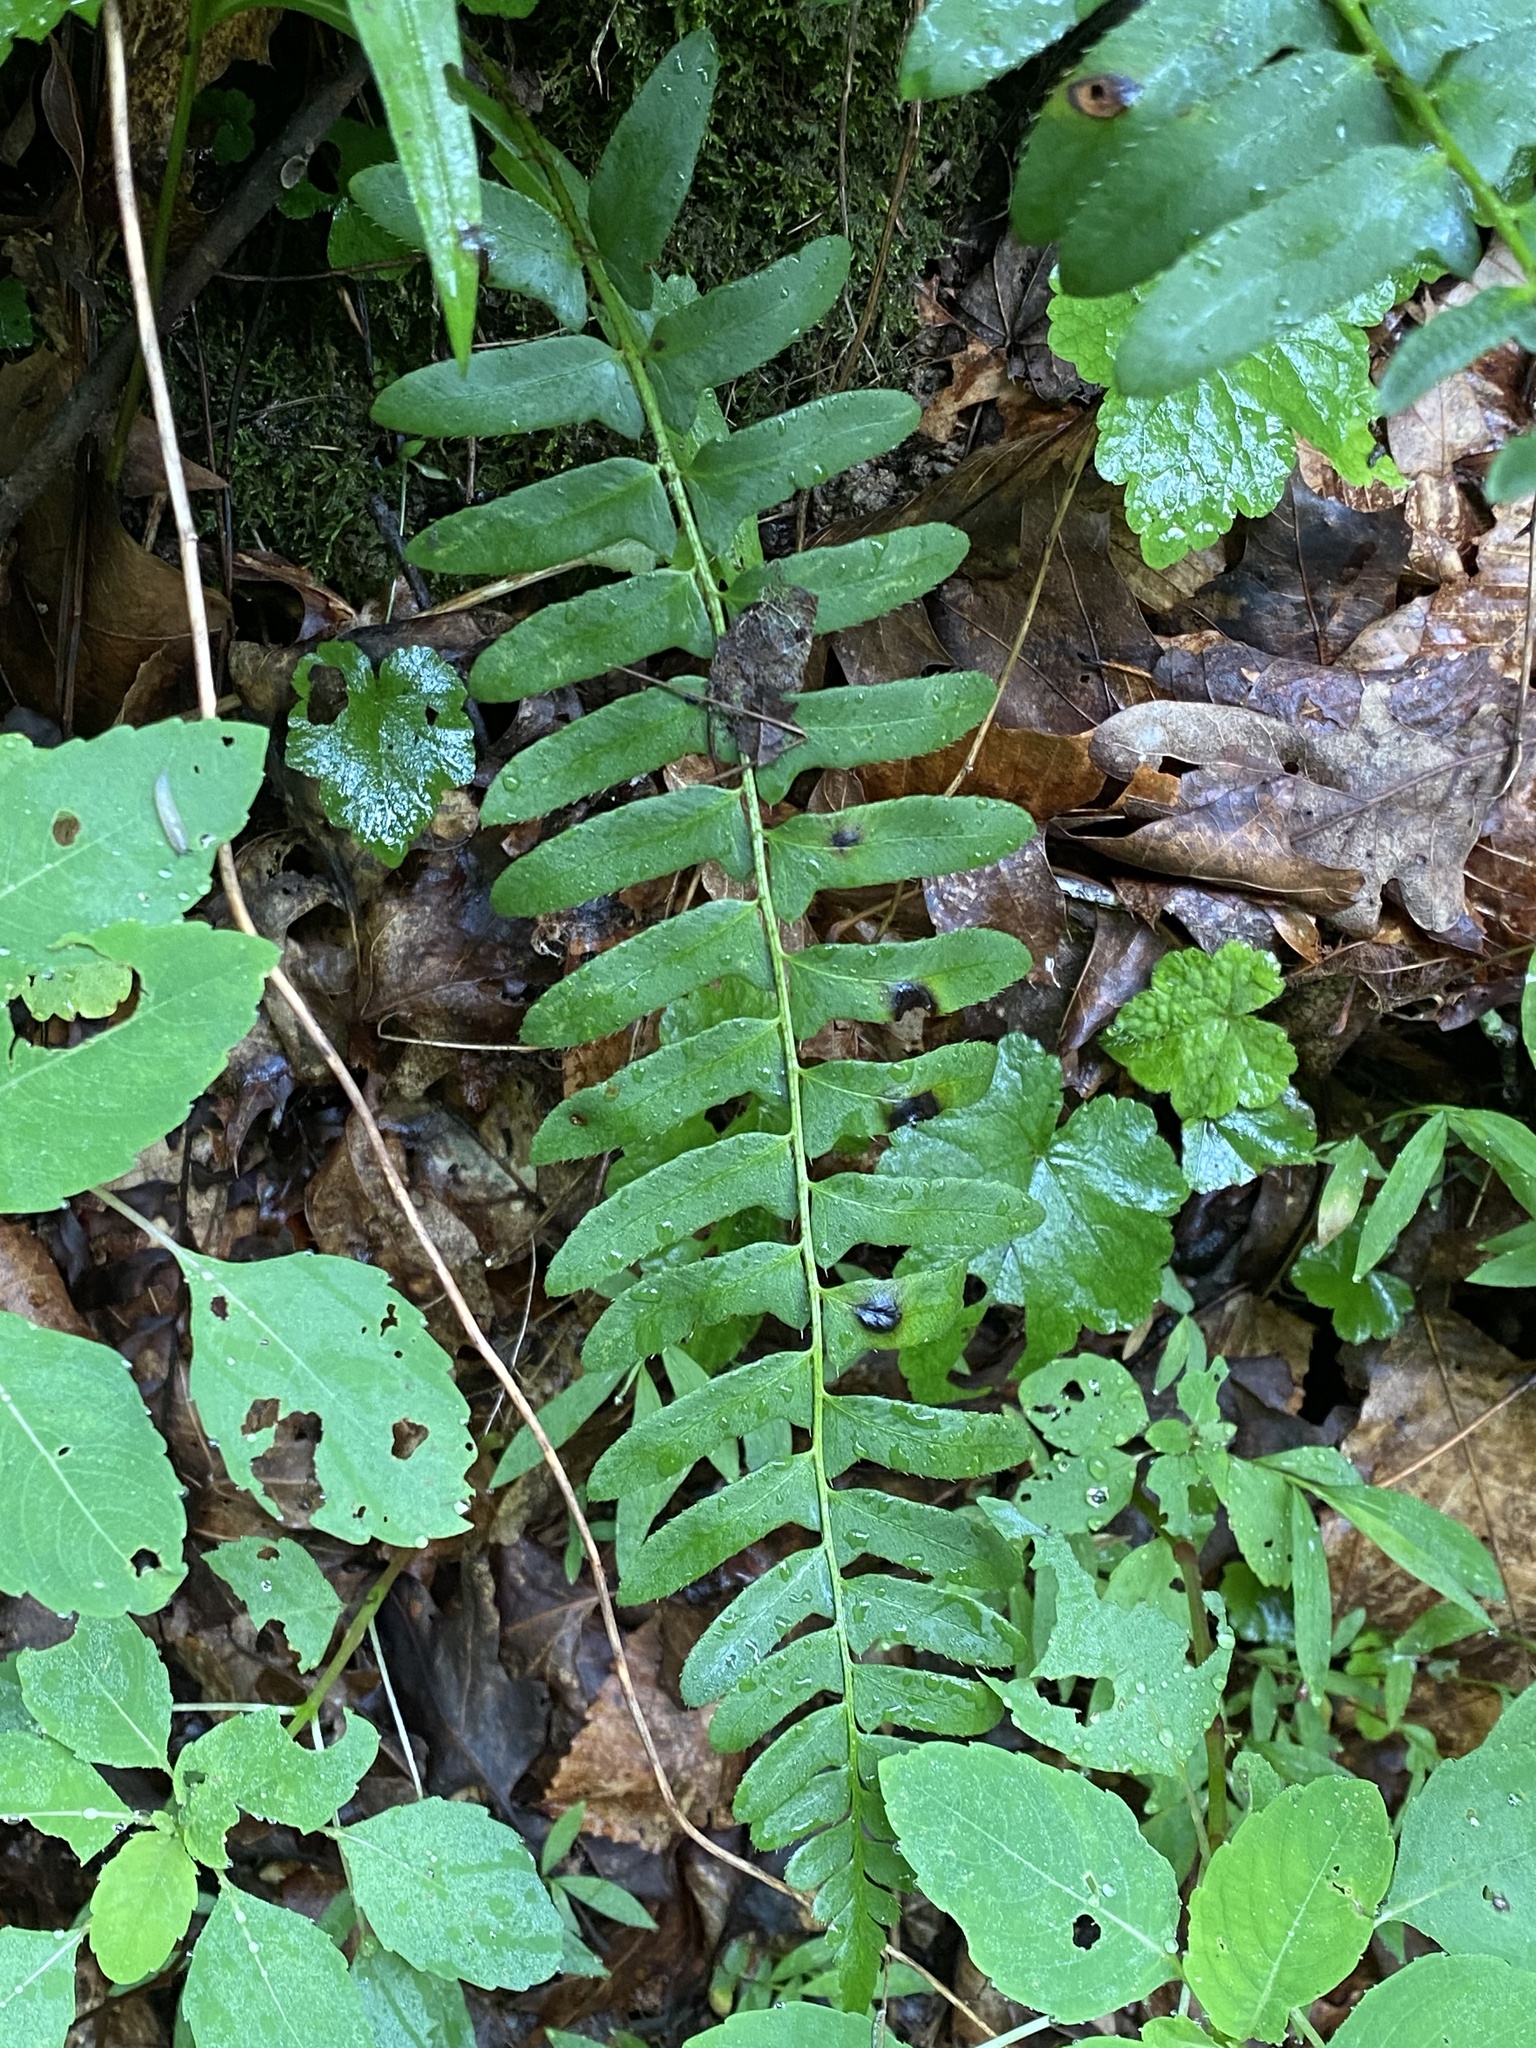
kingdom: Plantae
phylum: Tracheophyta
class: Polypodiopsida
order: Polypodiales
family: Dryopteridaceae
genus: Polystichum
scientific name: Polystichum acrostichoides
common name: Christmas fern
